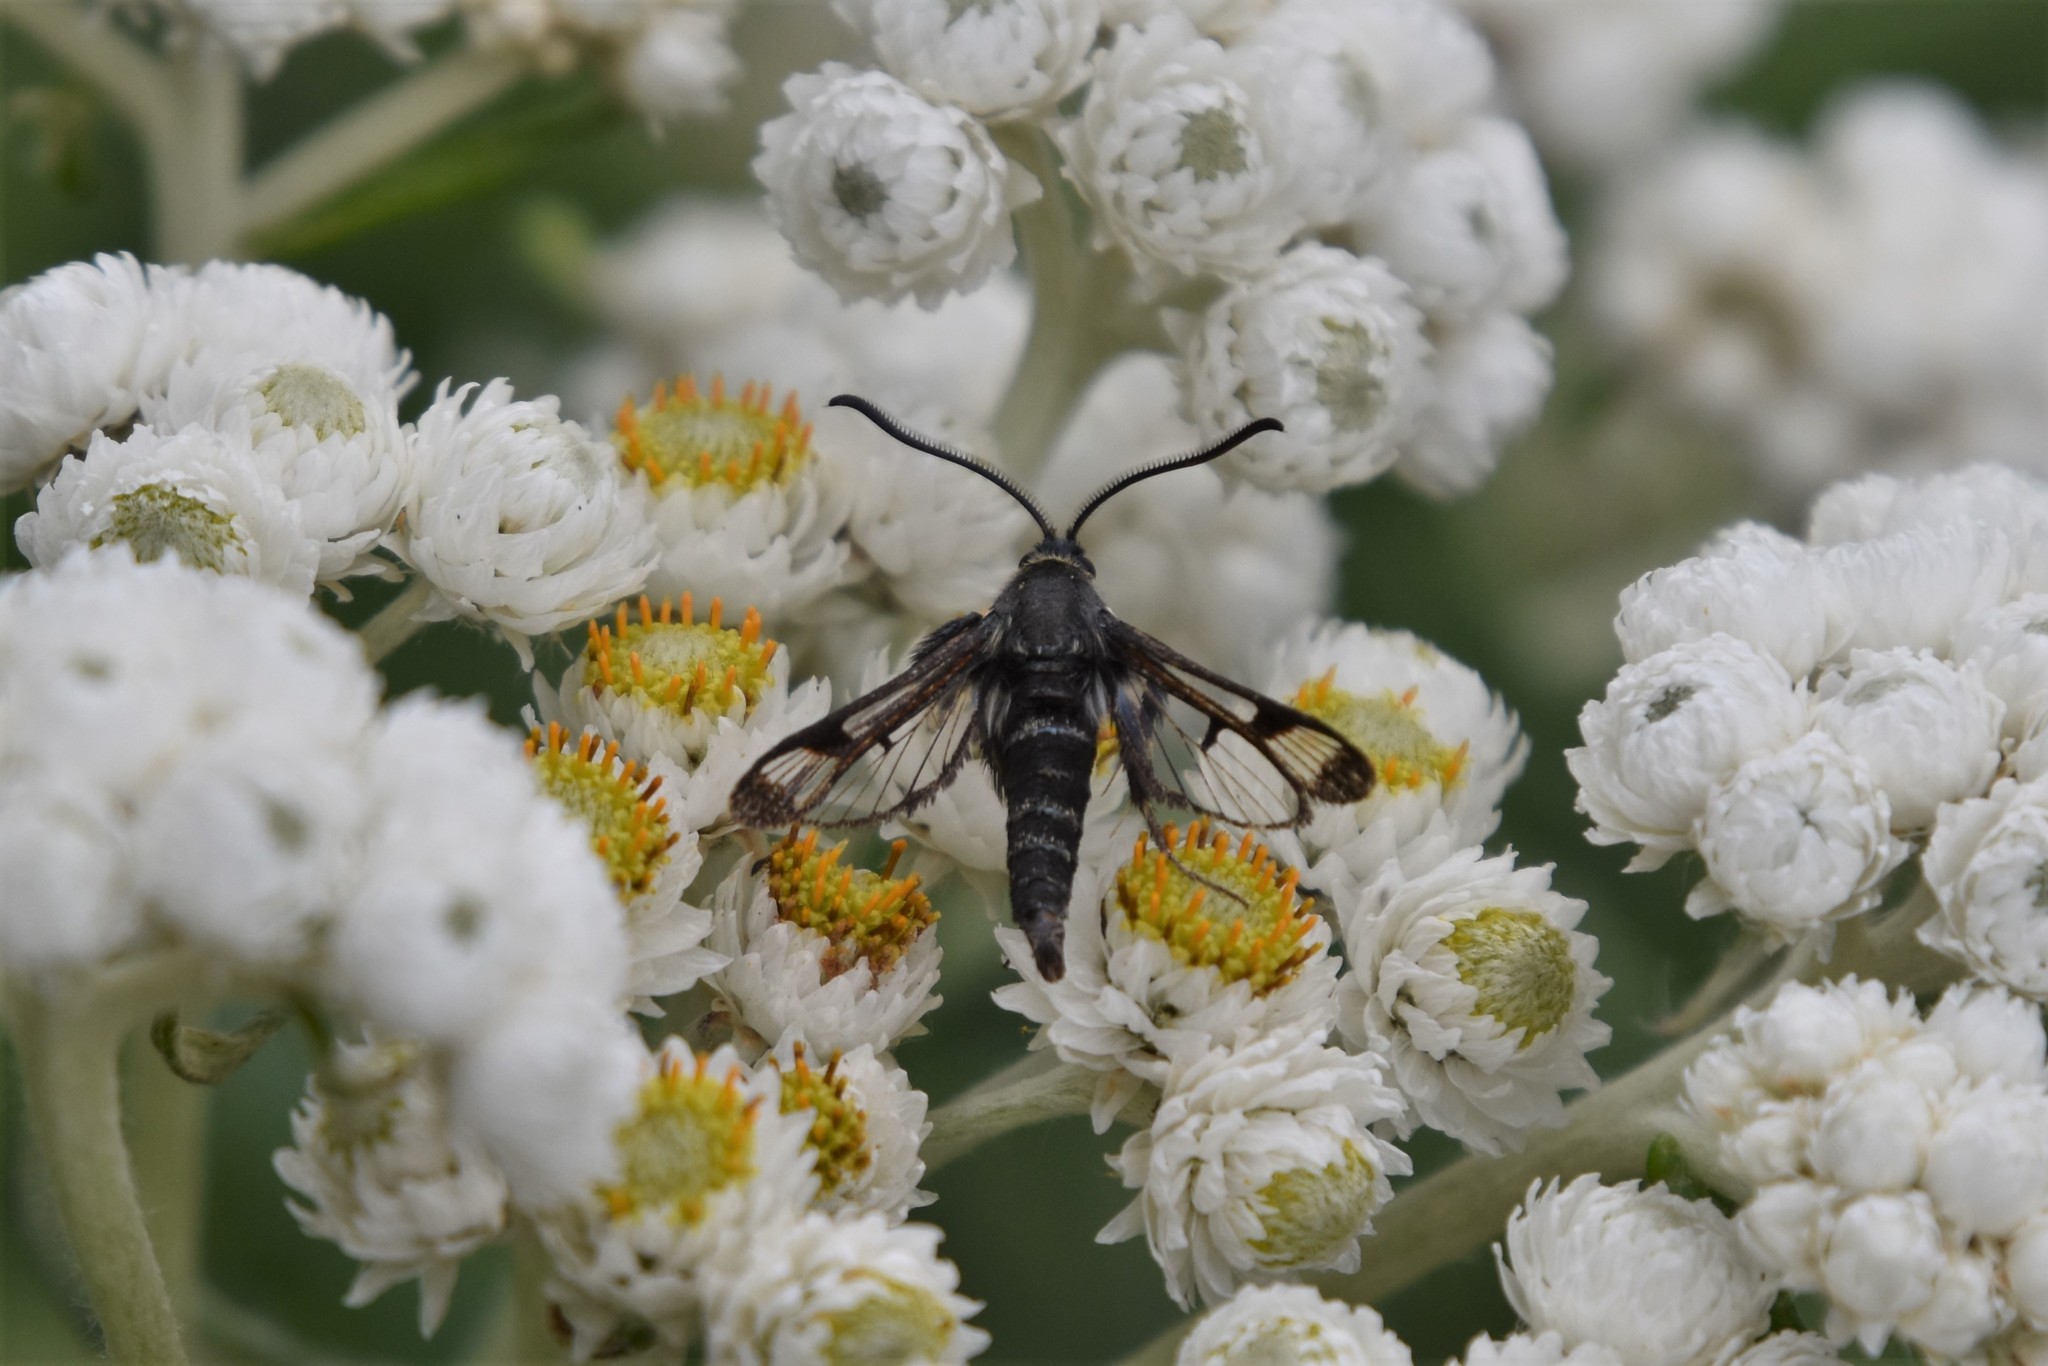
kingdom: Animalia
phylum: Arthropoda
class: Insecta
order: Lepidoptera
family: Sesiidae
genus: Albuna
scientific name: Albuna pyramidalis
